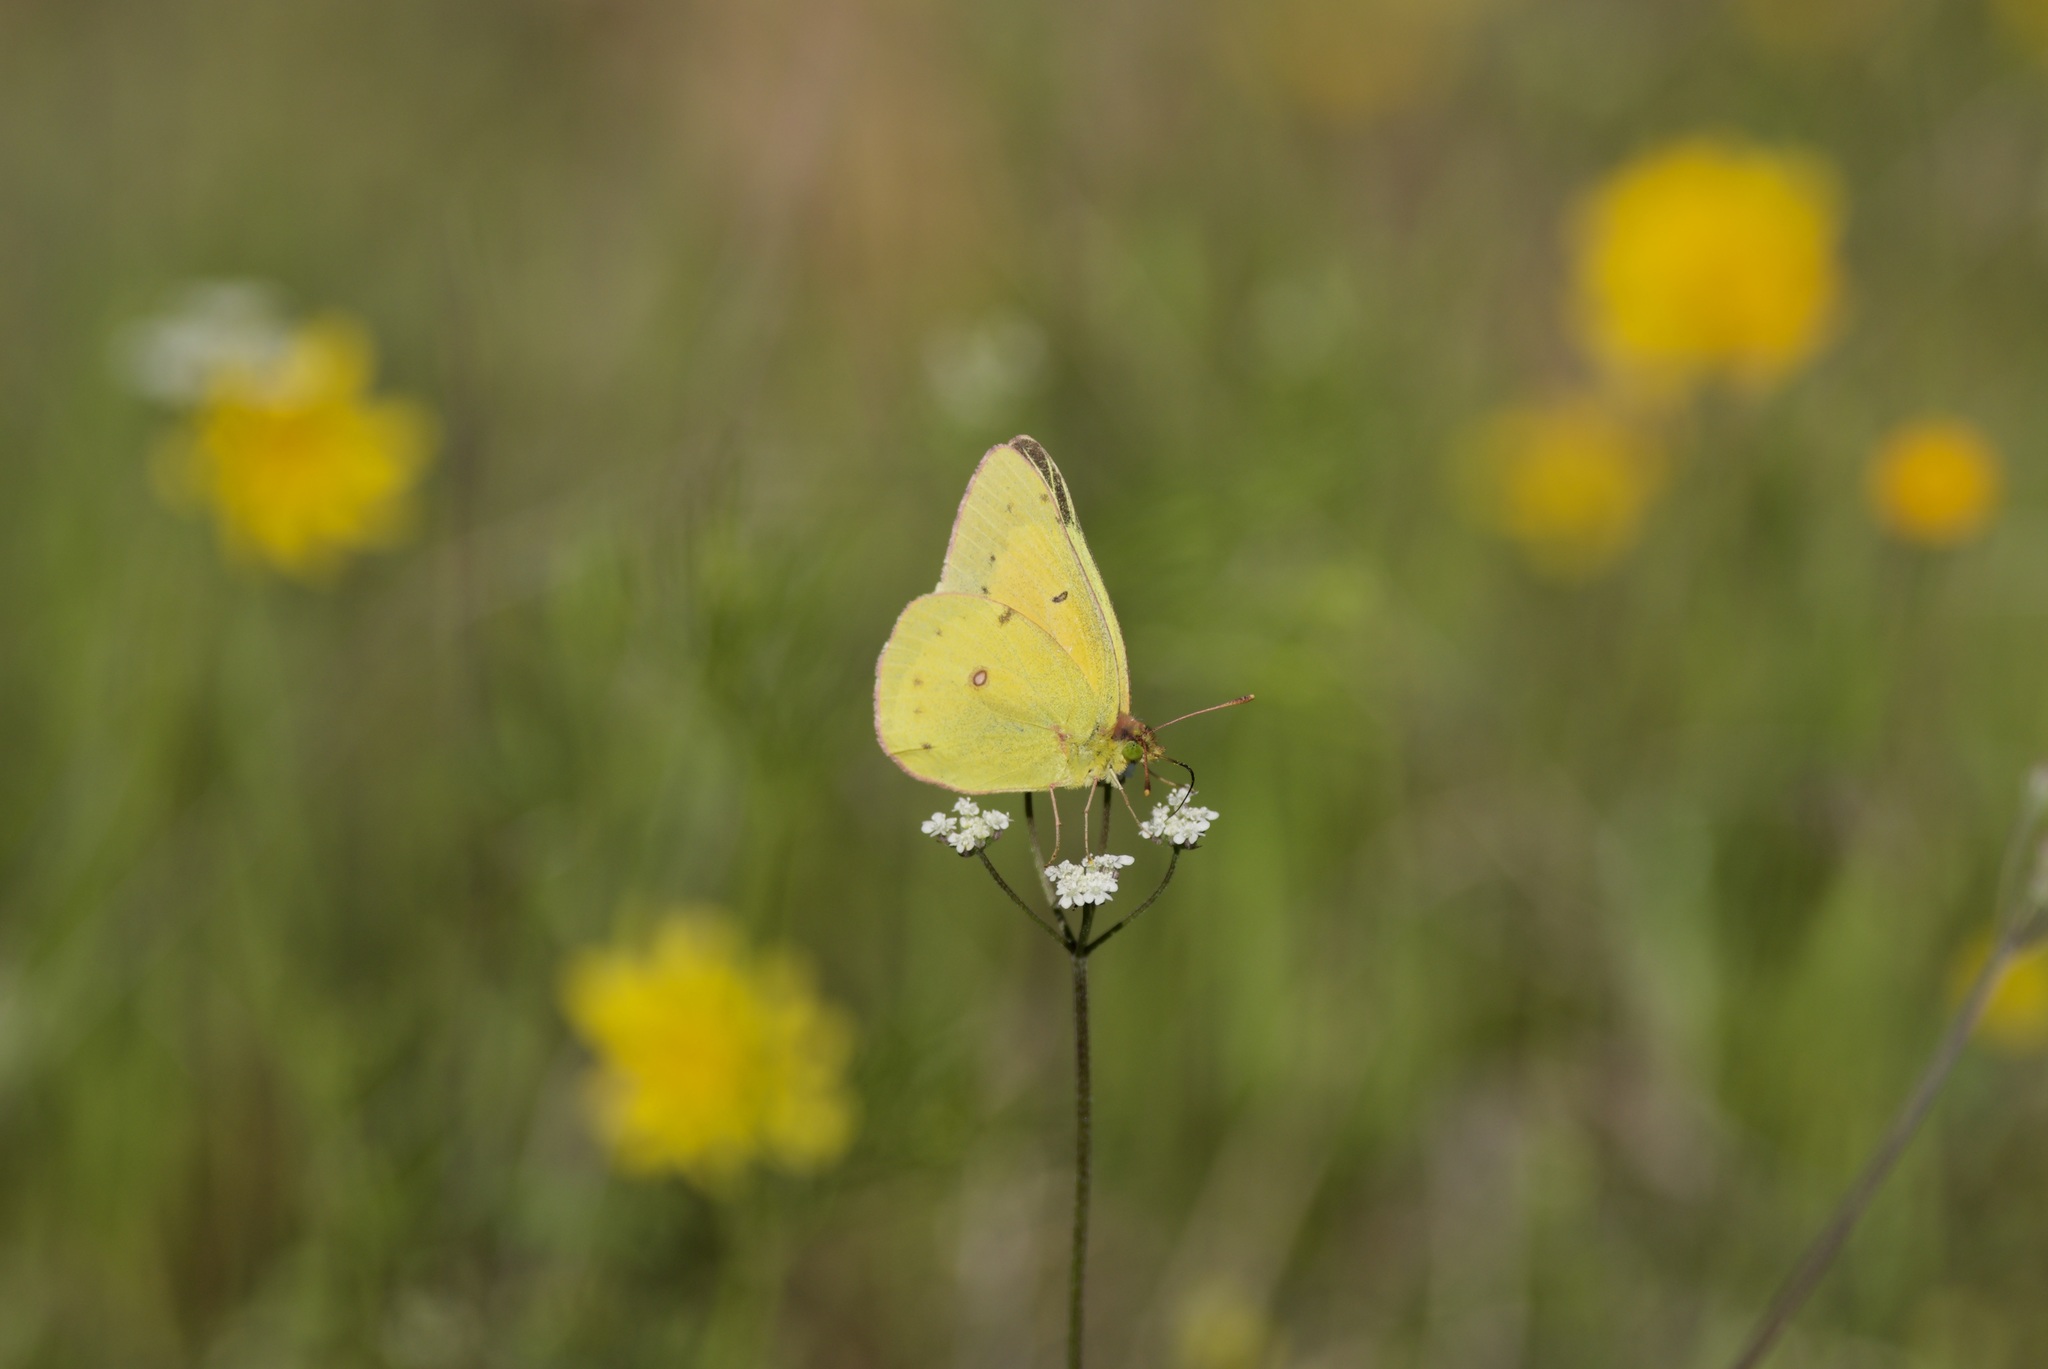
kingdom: Animalia
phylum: Arthropoda
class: Insecta
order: Lepidoptera
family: Pieridae
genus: Colias
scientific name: Colias eurytheme
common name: Alfalfa butterfly
